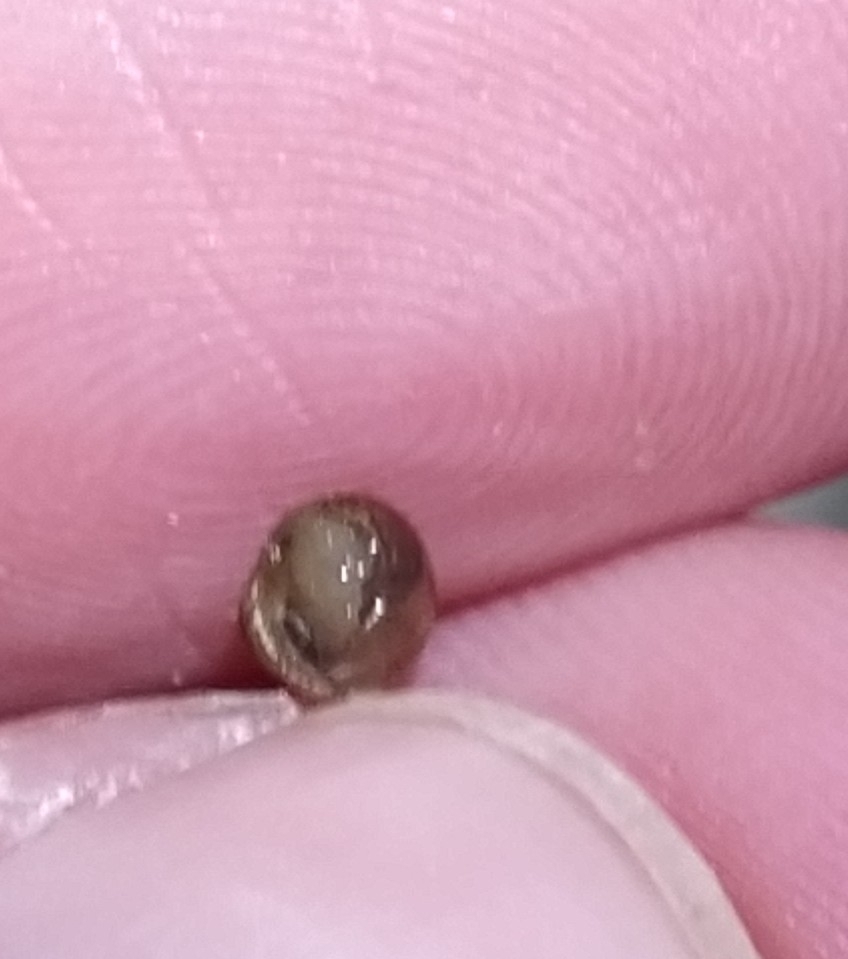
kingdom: Animalia
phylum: Mollusca
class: Gastropoda
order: Stylommatophora
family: Geomitridae
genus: Cochlicella
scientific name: Cochlicella barbara
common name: Potbellied helicellid
